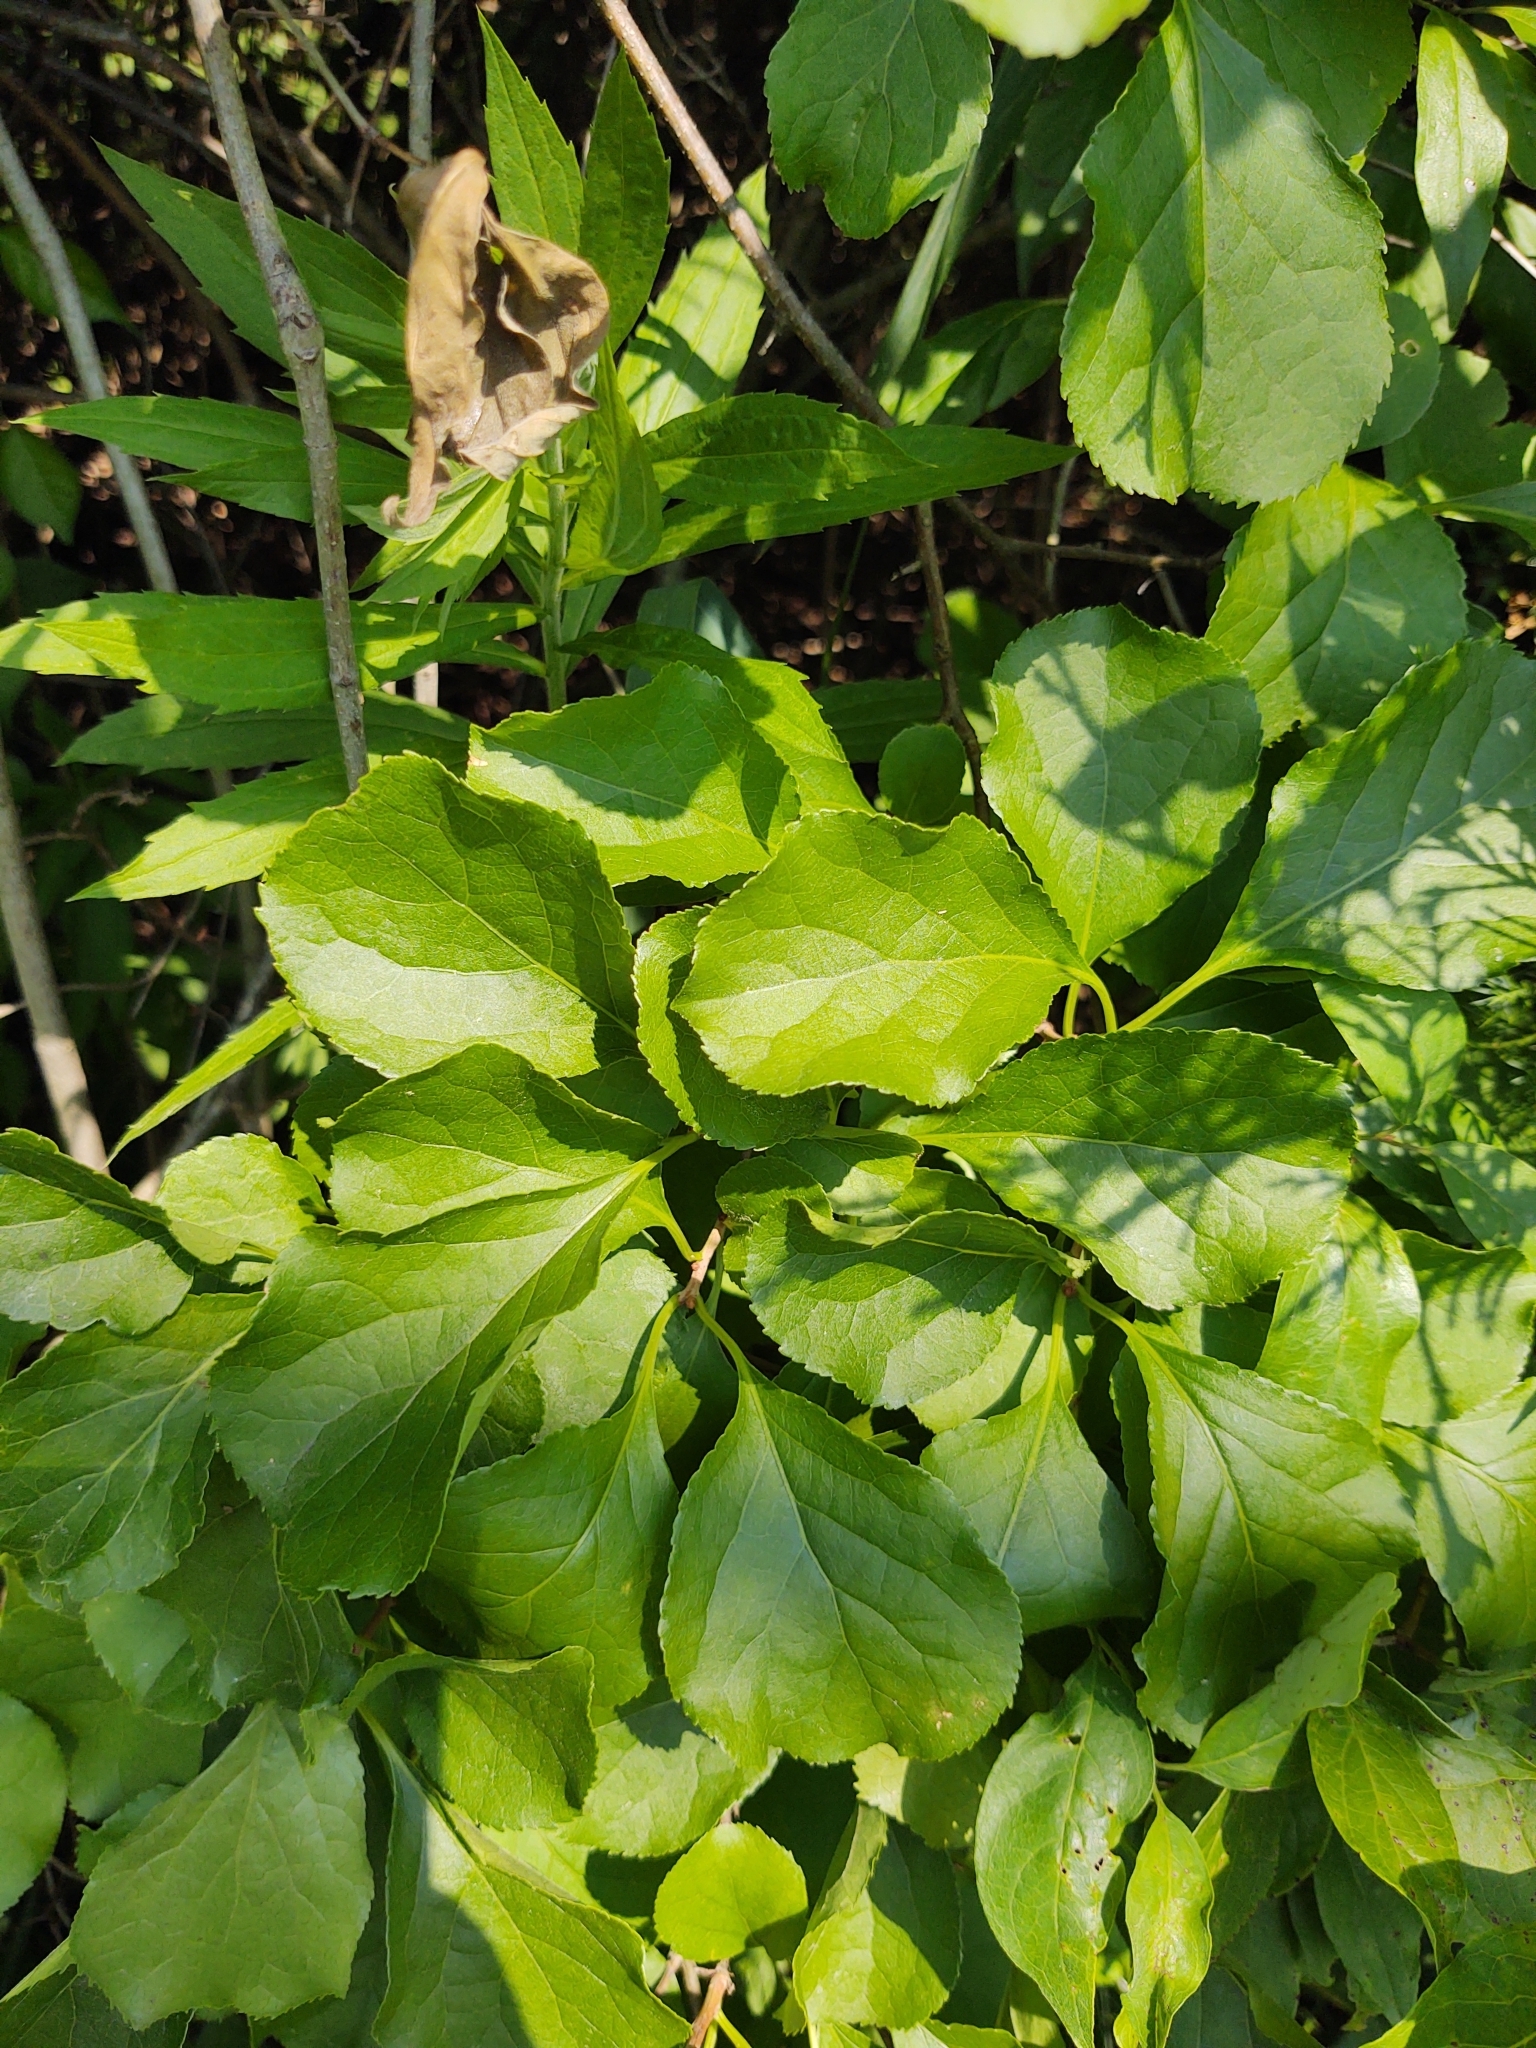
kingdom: Plantae
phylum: Tracheophyta
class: Magnoliopsida
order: Celastrales
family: Celastraceae
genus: Celastrus
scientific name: Celastrus orbiculatus
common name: Oriental bittersweet
